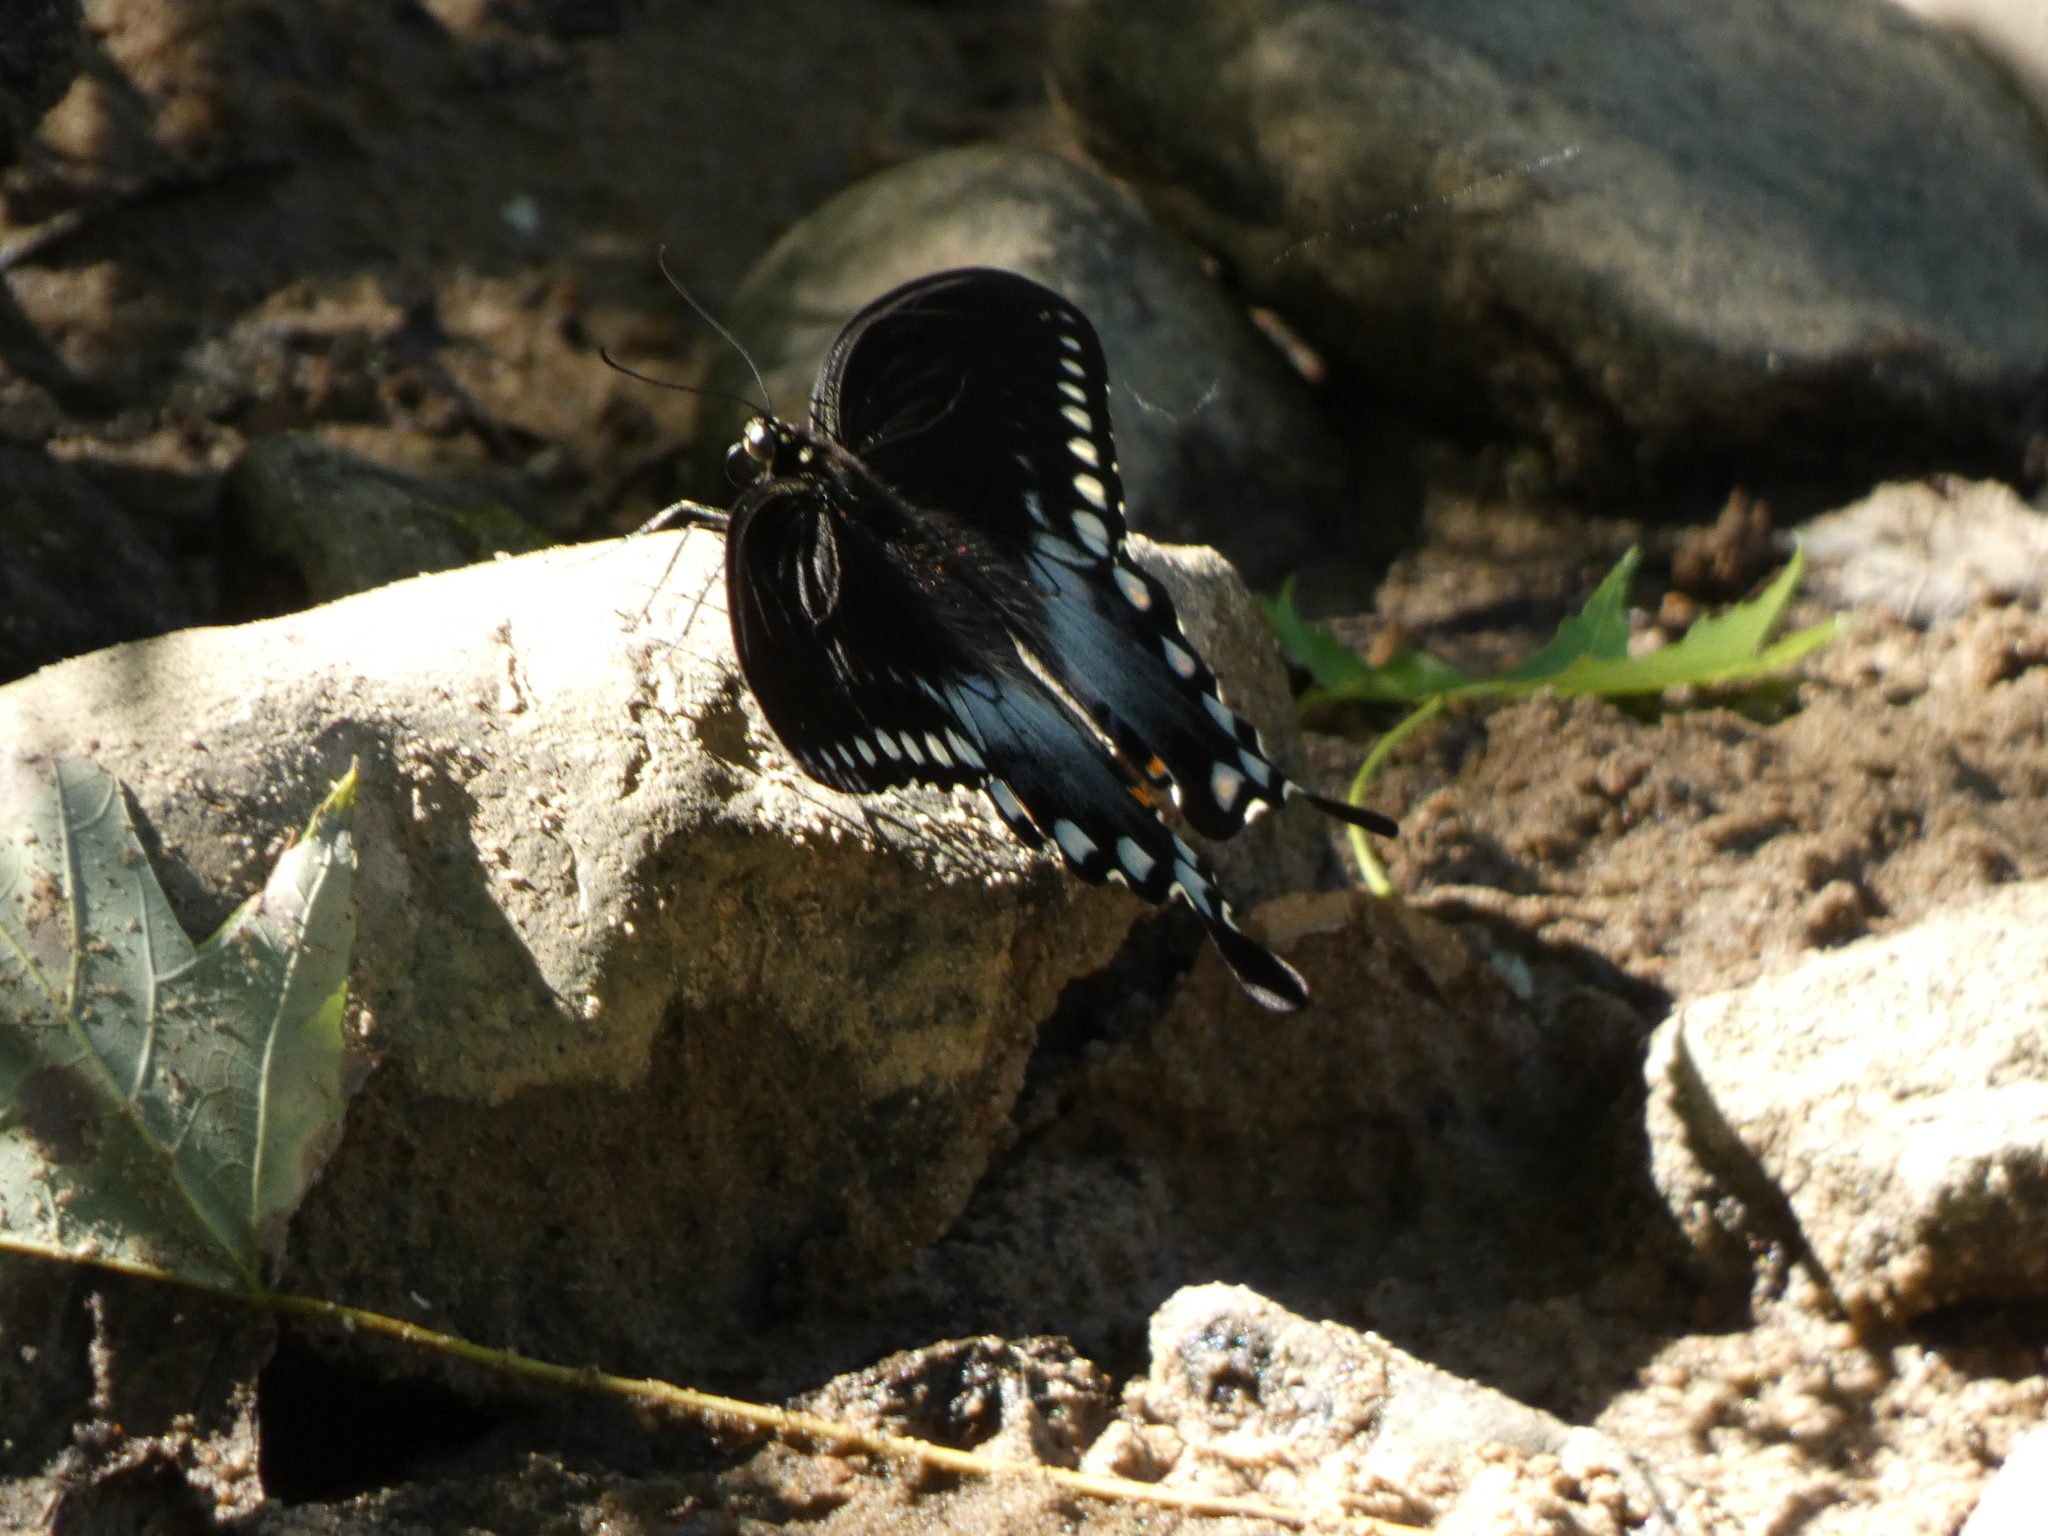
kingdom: Animalia
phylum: Arthropoda
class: Insecta
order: Lepidoptera
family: Papilionidae
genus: Papilio
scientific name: Papilio troilus
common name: Spicebush swallowtail
